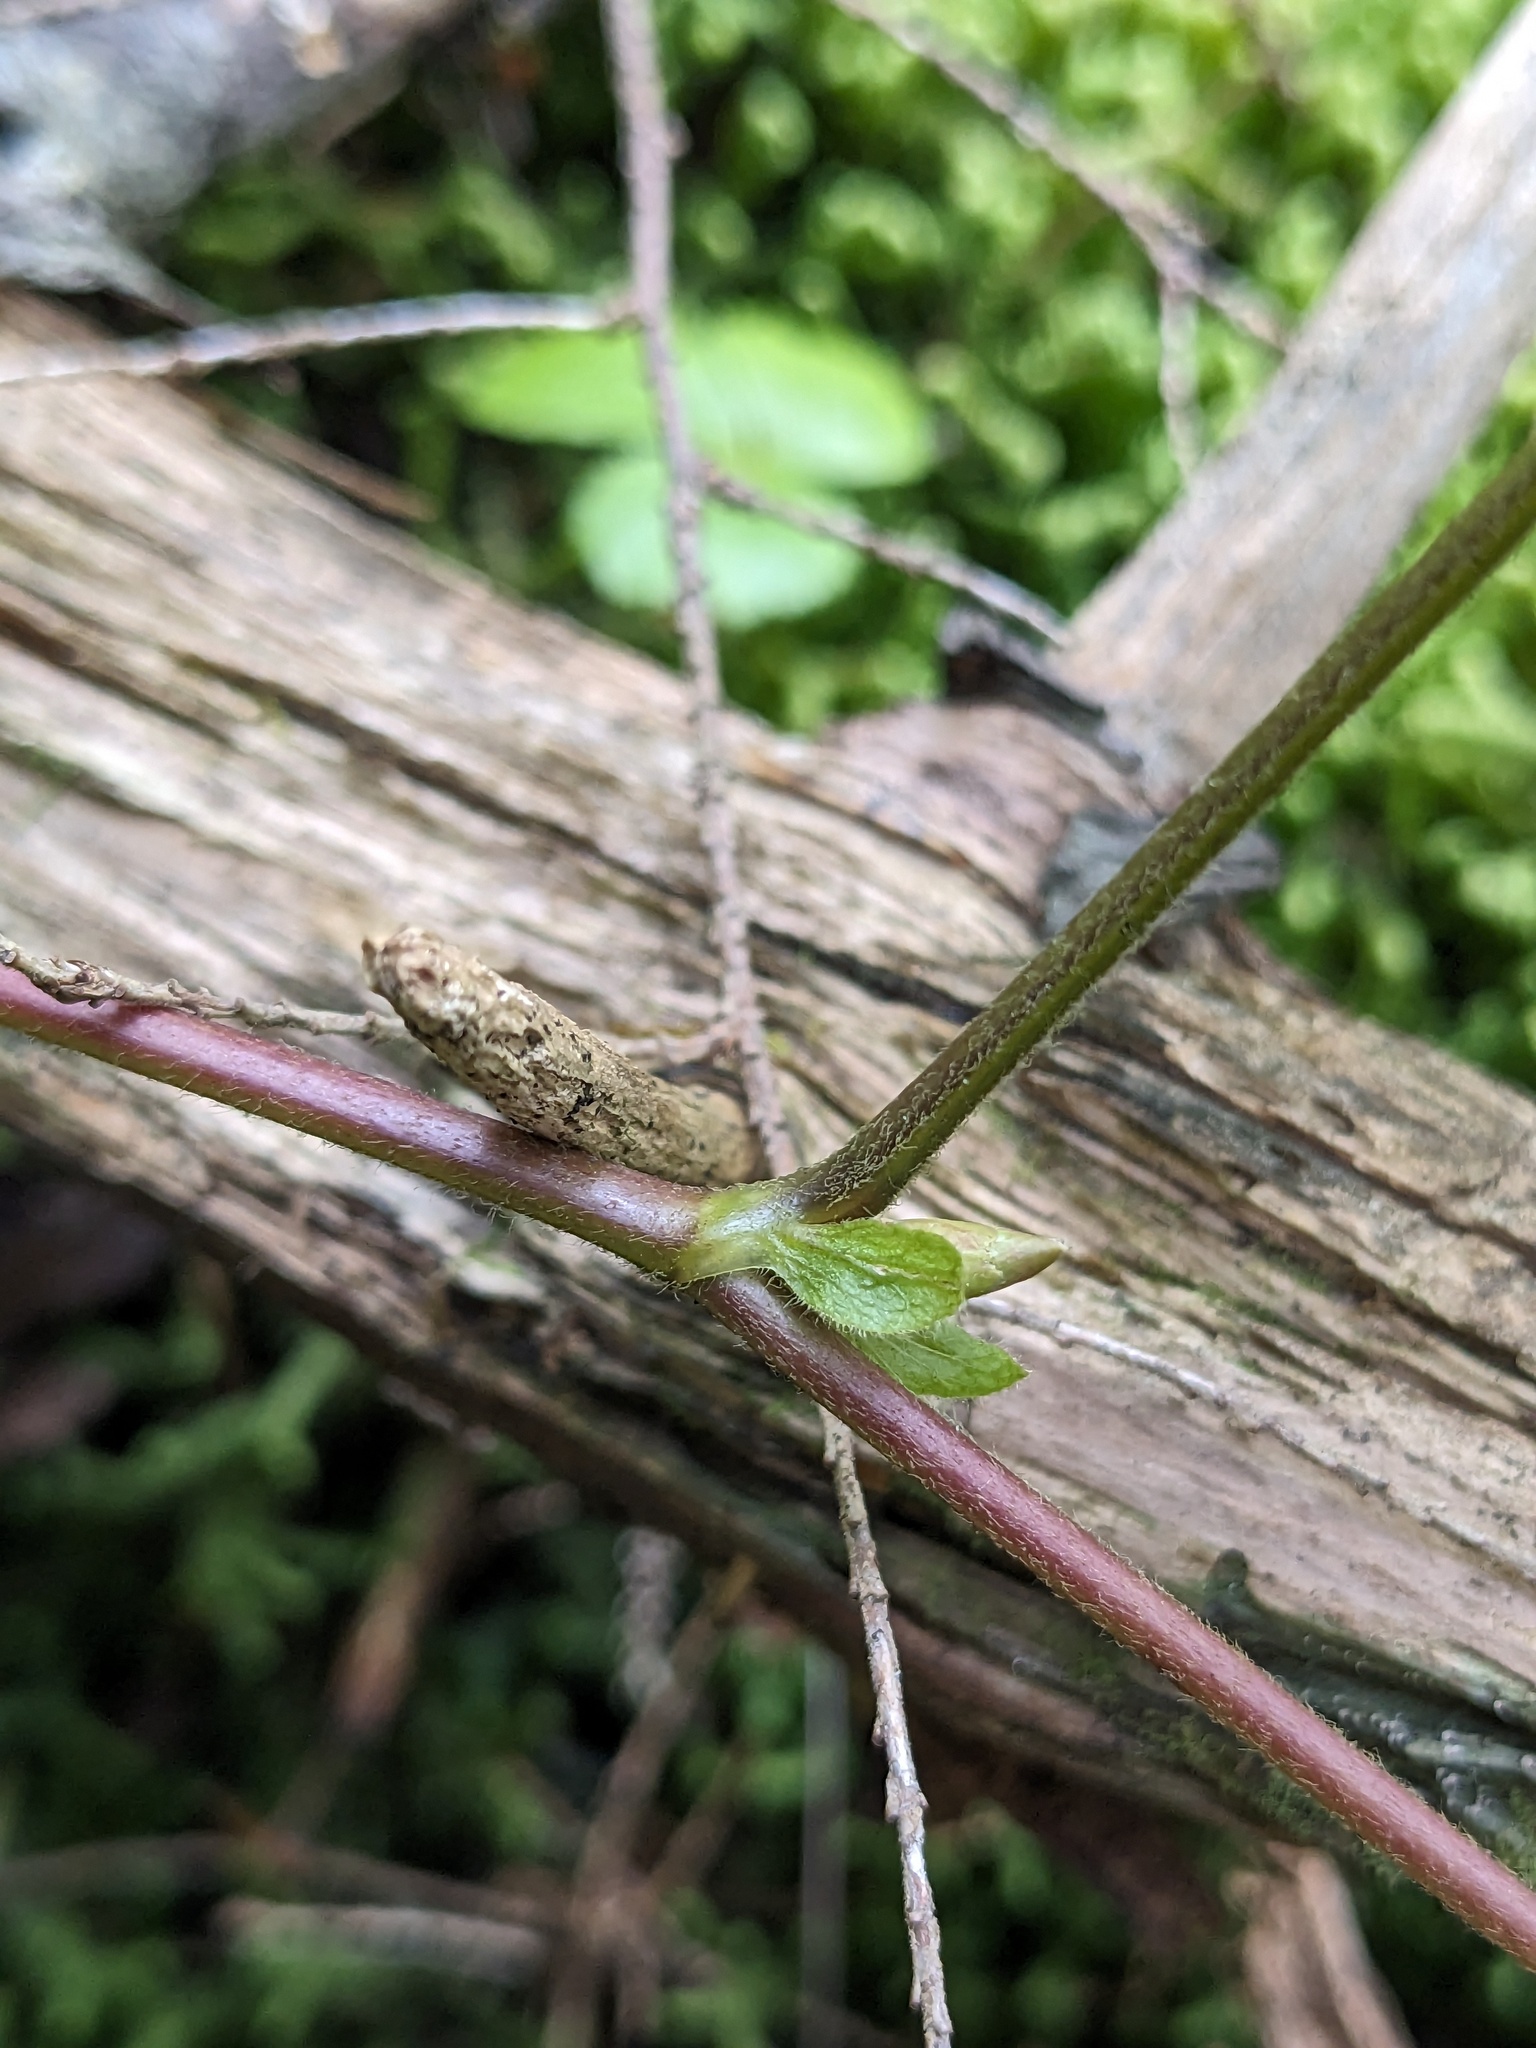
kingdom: Plantae
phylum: Tracheophyta
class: Magnoliopsida
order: Rosales
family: Rosaceae
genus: Rubus
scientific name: Rubus pubescens
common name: Dwarf raspberry
